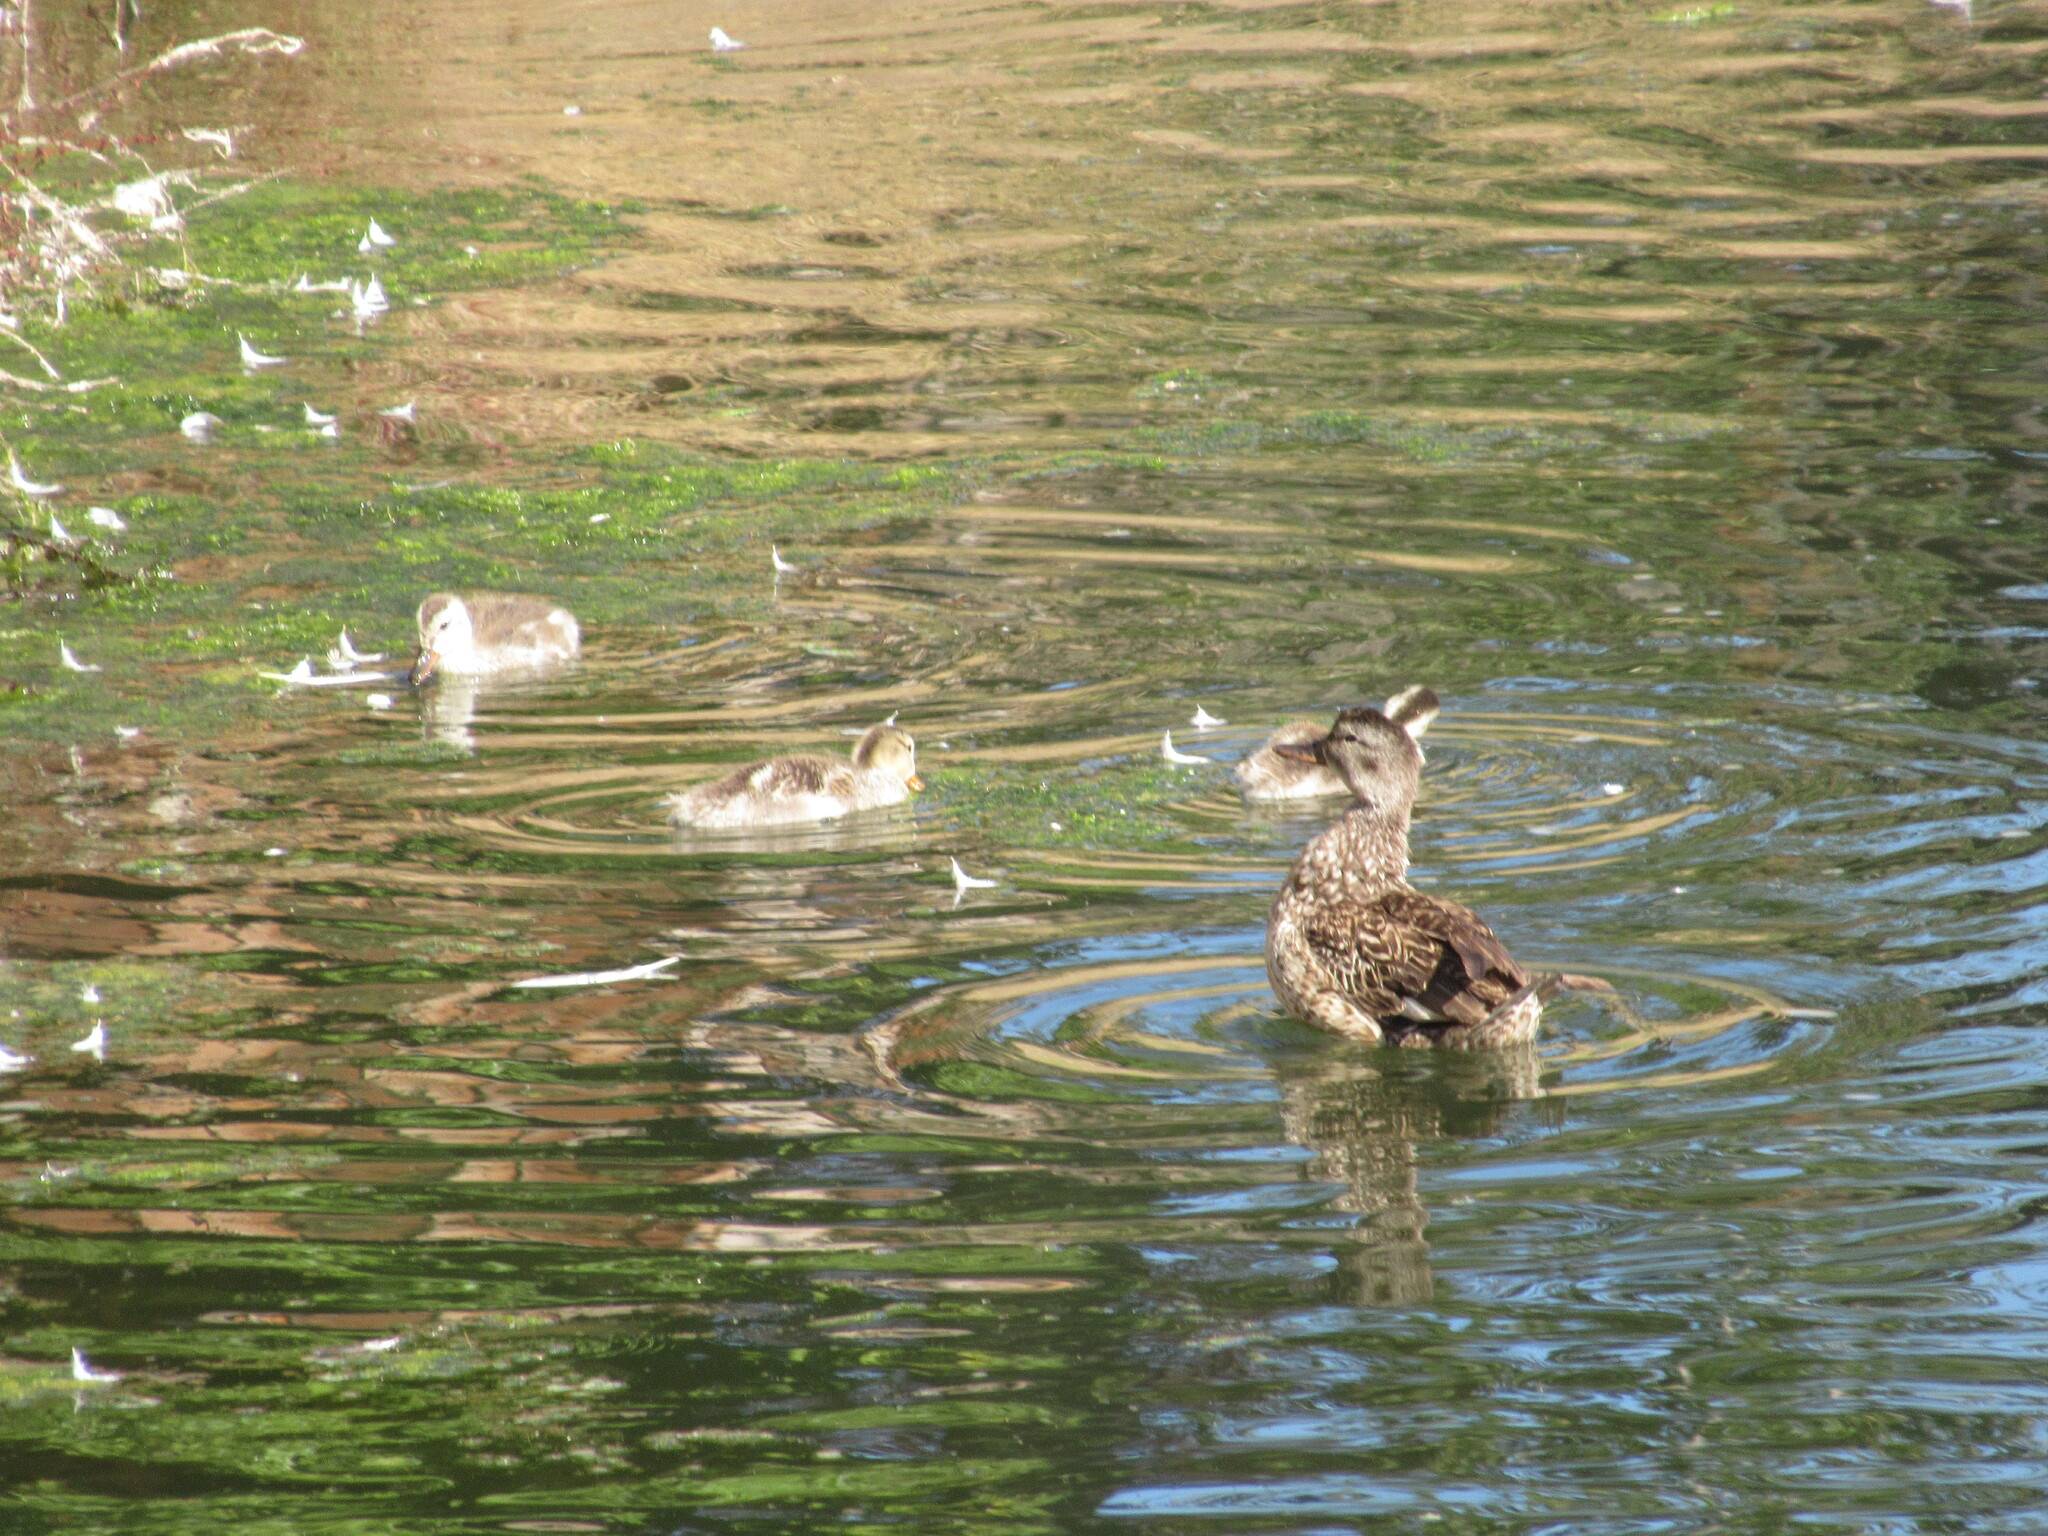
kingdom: Animalia
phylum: Chordata
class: Aves
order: Anseriformes
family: Anatidae
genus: Mareca
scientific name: Mareca strepera
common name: Gadwall
